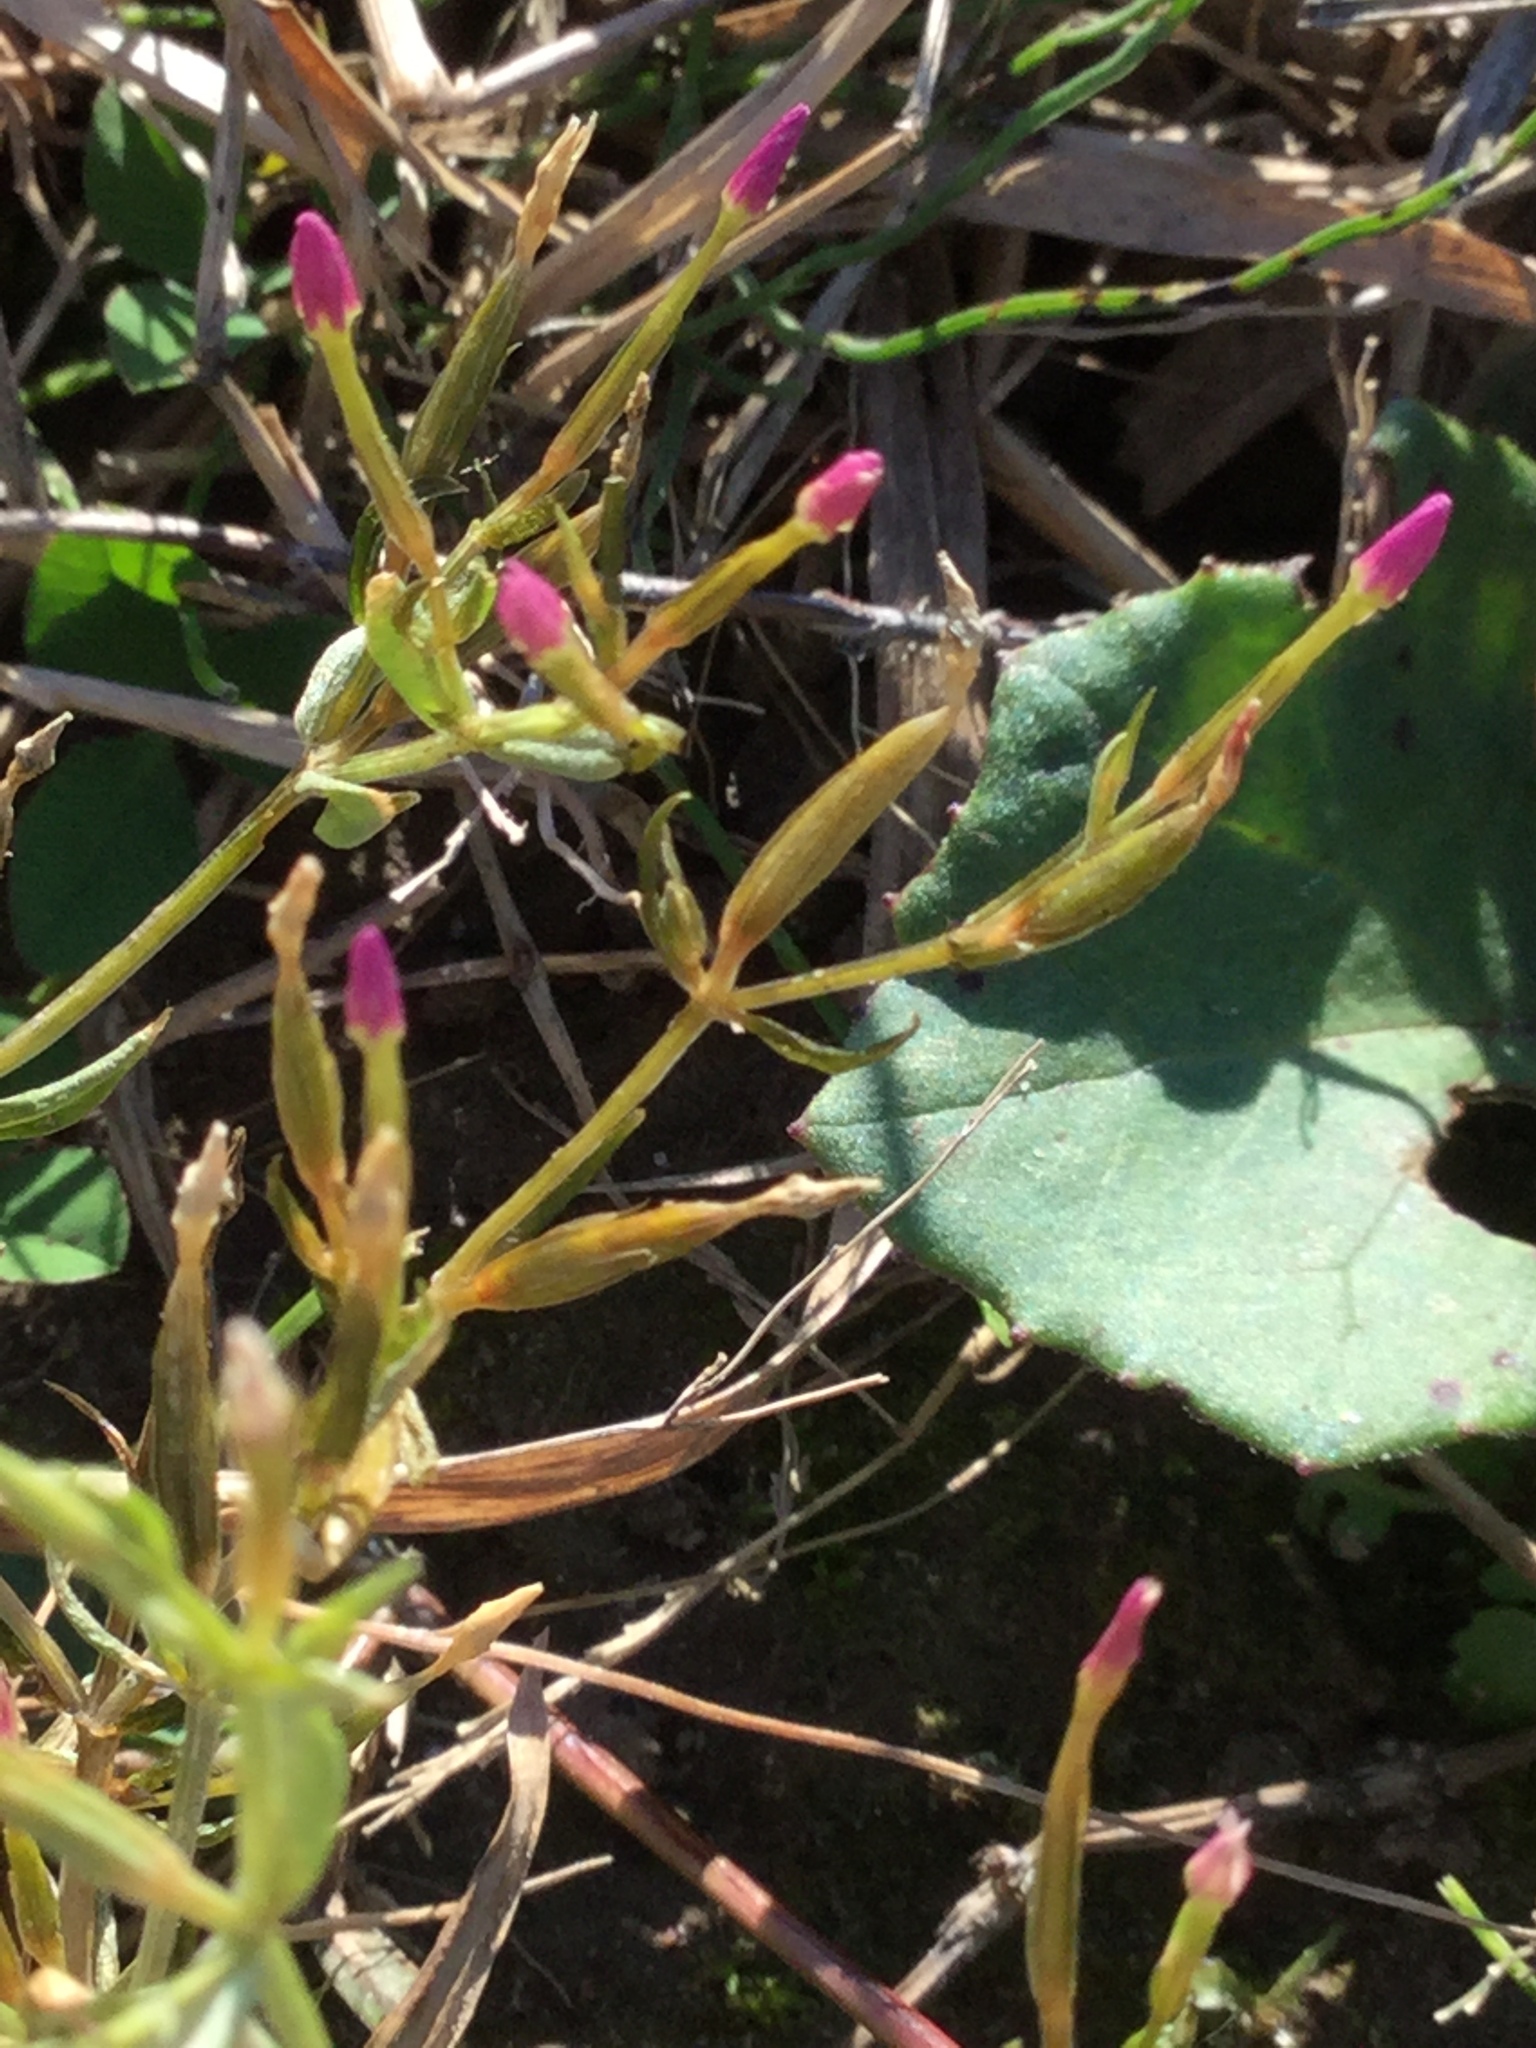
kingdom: Plantae
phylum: Tracheophyta
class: Magnoliopsida
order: Gentianales
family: Gentianaceae
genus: Centaurium
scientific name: Centaurium pulchellum
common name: Lesser centaury
